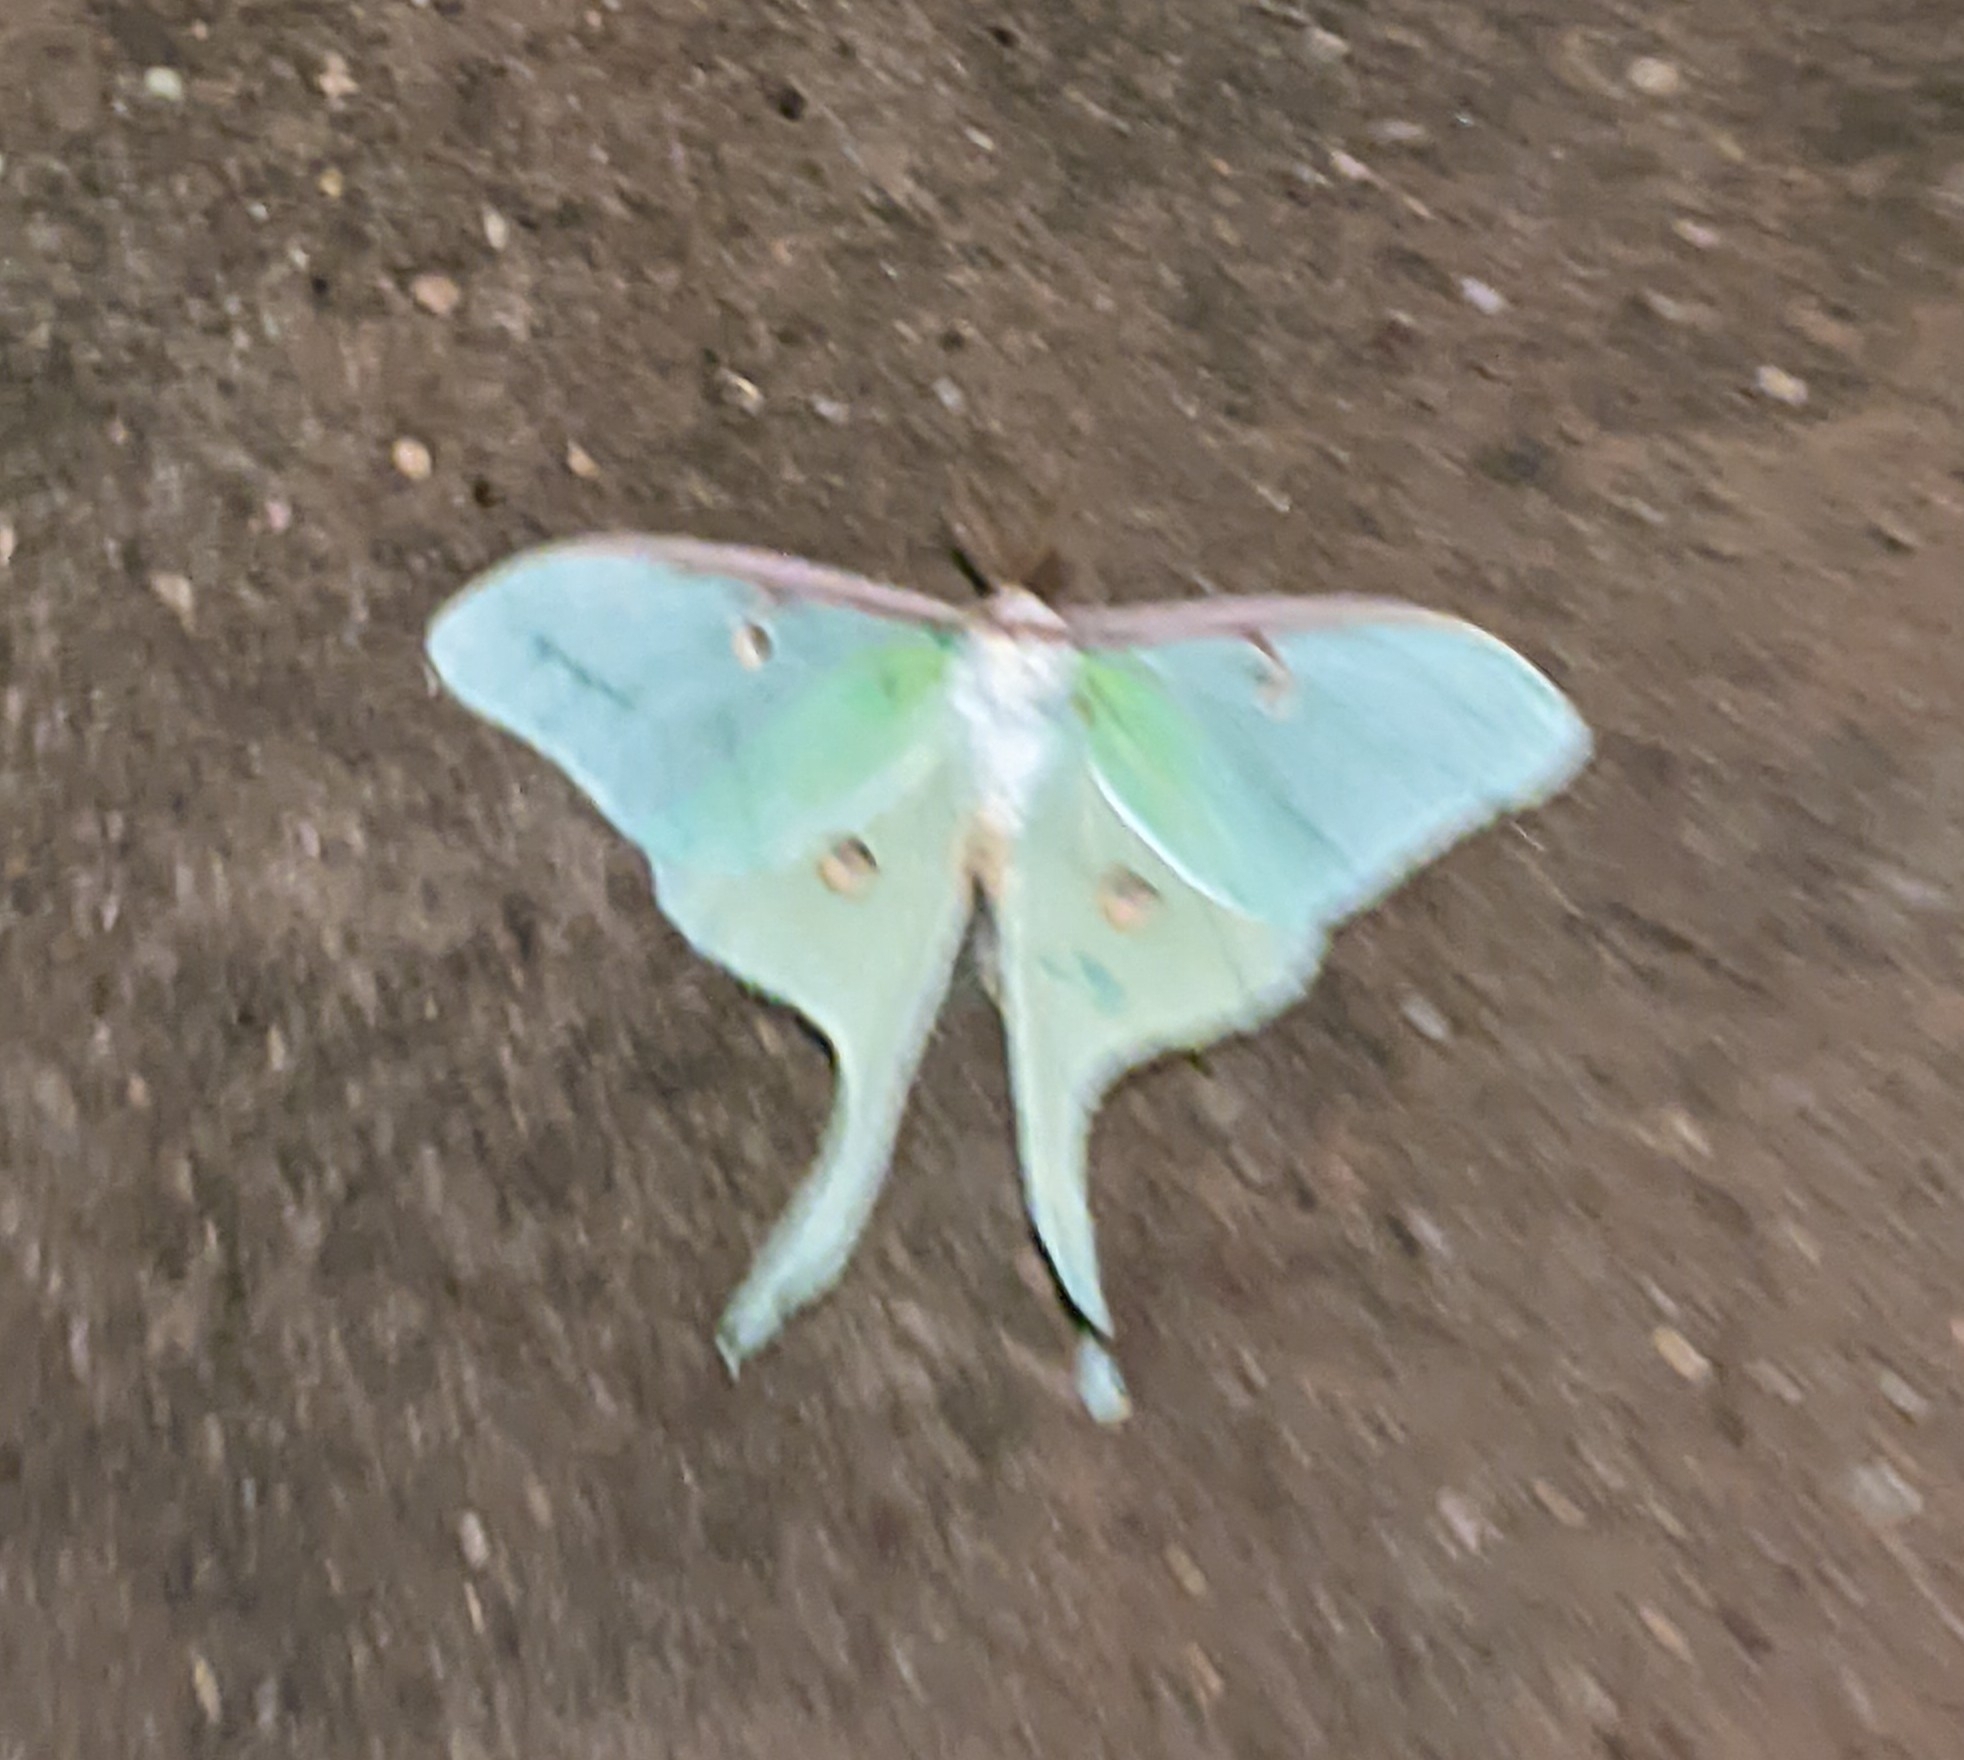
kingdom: Animalia
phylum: Arthropoda
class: Insecta
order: Lepidoptera
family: Saturniidae
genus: Actias
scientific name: Actias luna
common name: Luna moth
